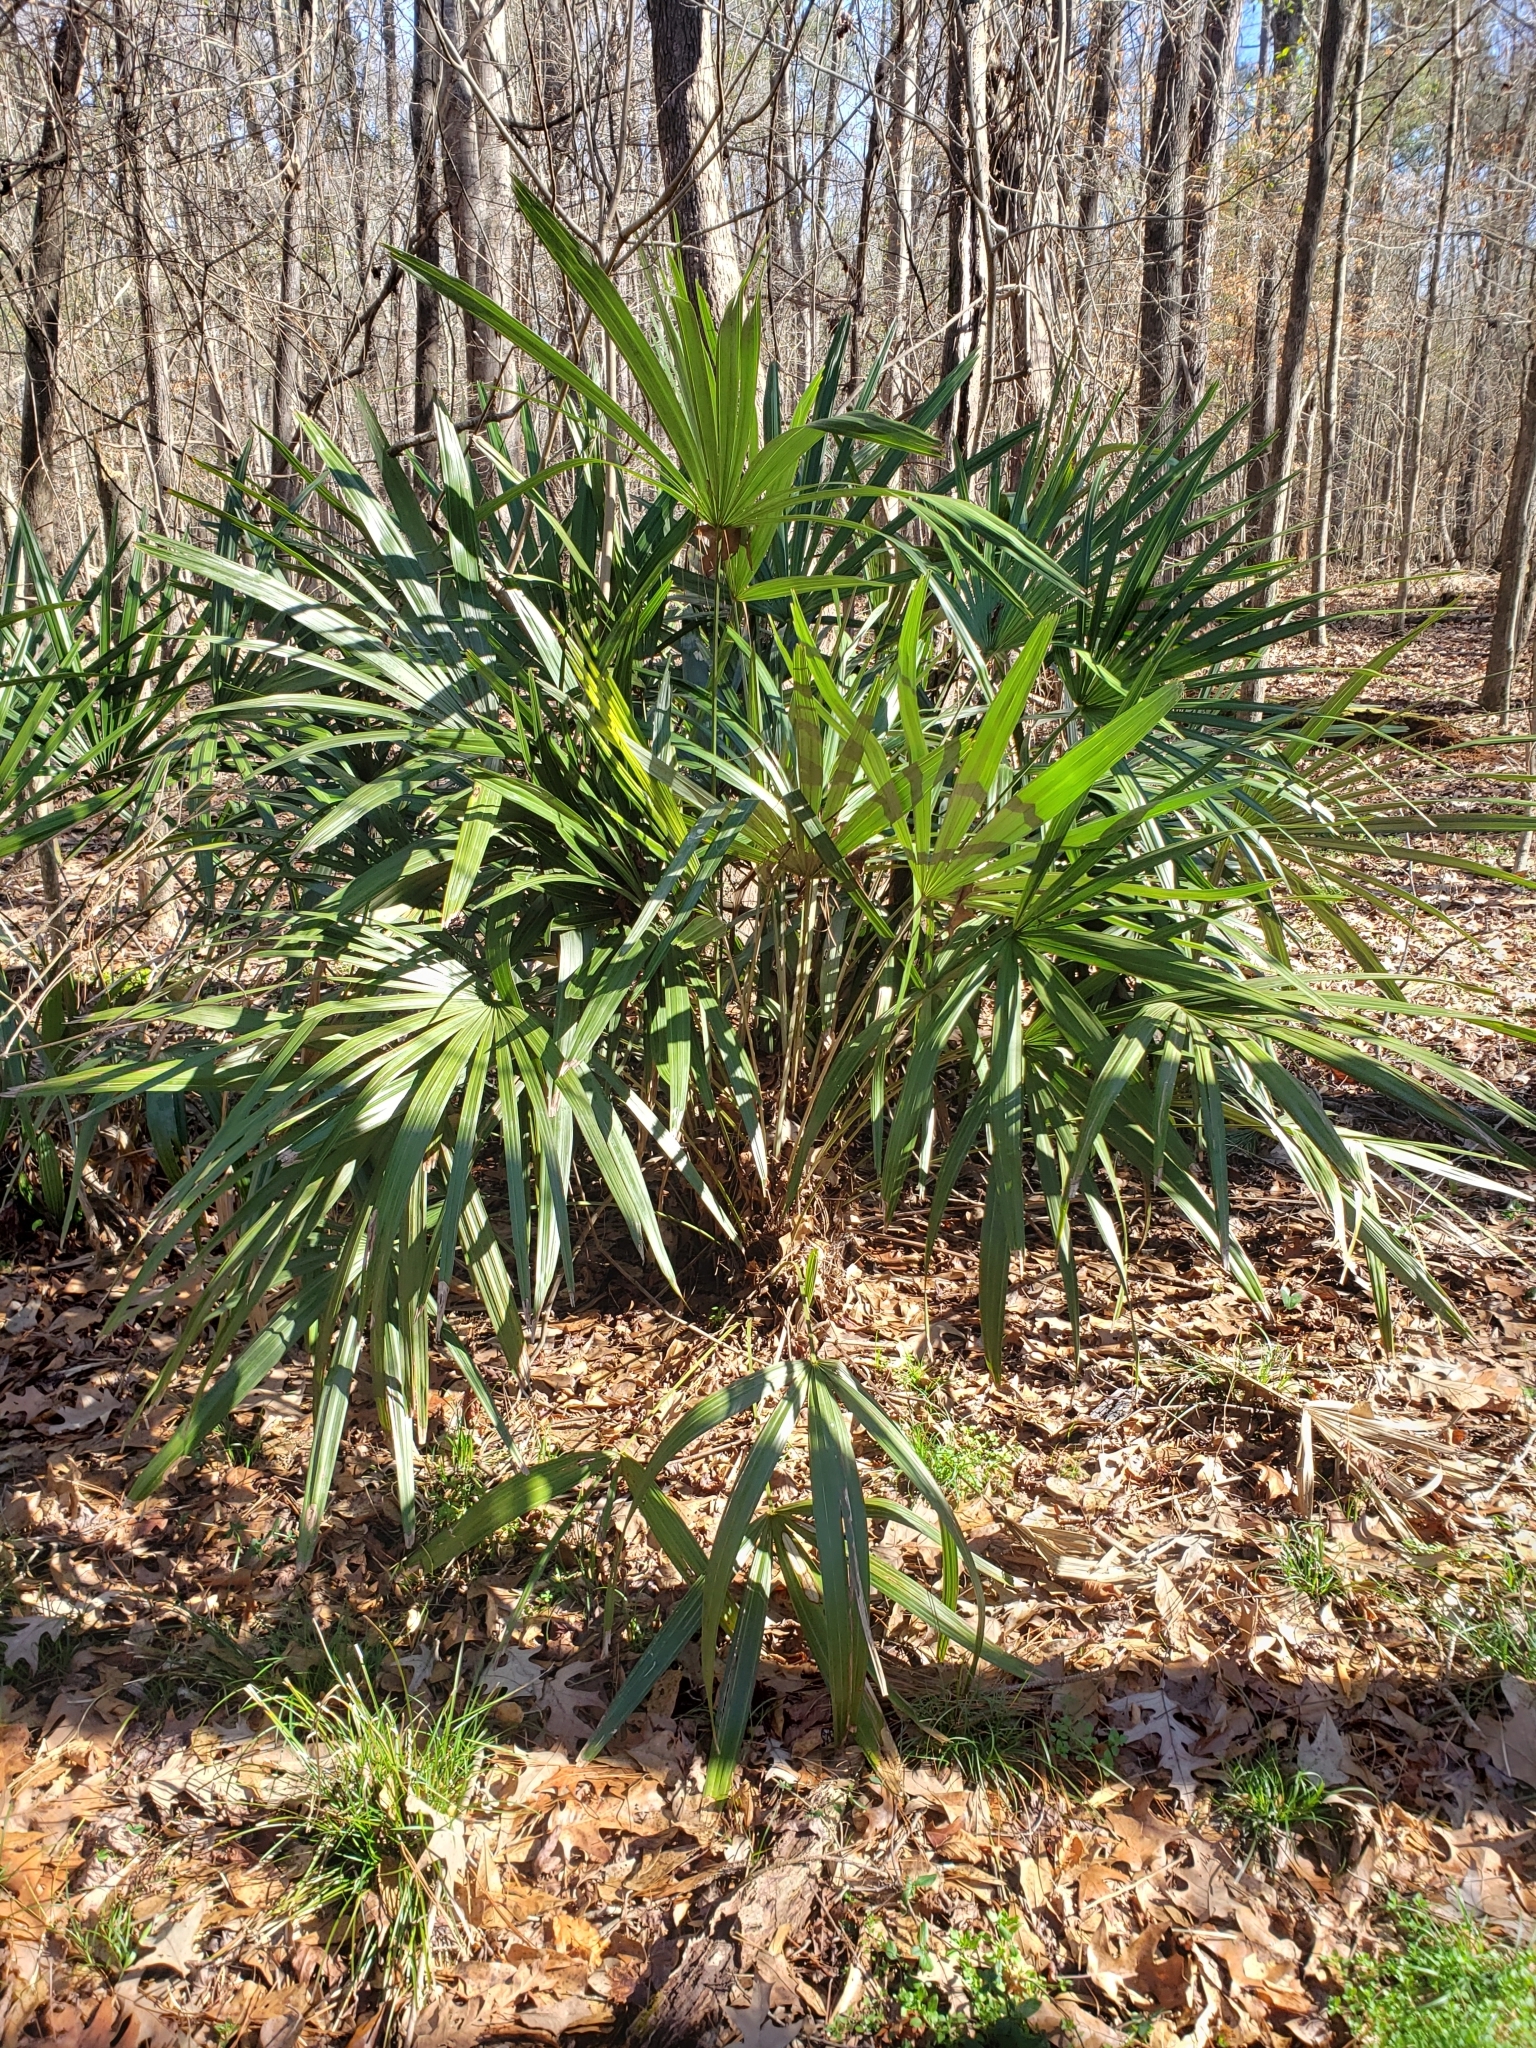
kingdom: Plantae
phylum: Tracheophyta
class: Liliopsida
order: Arecales
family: Arecaceae
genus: Rhapidophyllum
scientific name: Rhapidophyllum hystrix
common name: Porcupine palm
